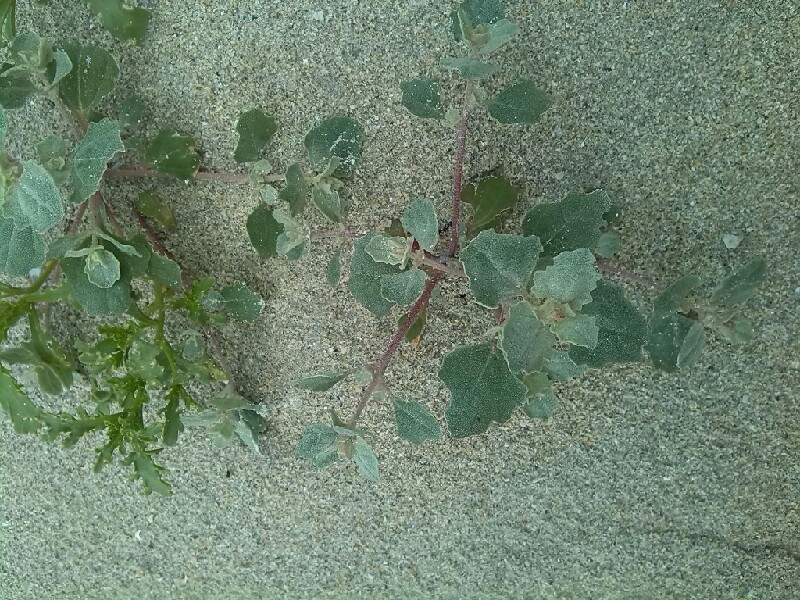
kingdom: Plantae
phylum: Tracheophyta
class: Magnoliopsida
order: Caryophyllales
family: Amaranthaceae
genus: Atriplex
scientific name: Atriplex laciniata
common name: Frosted orache
